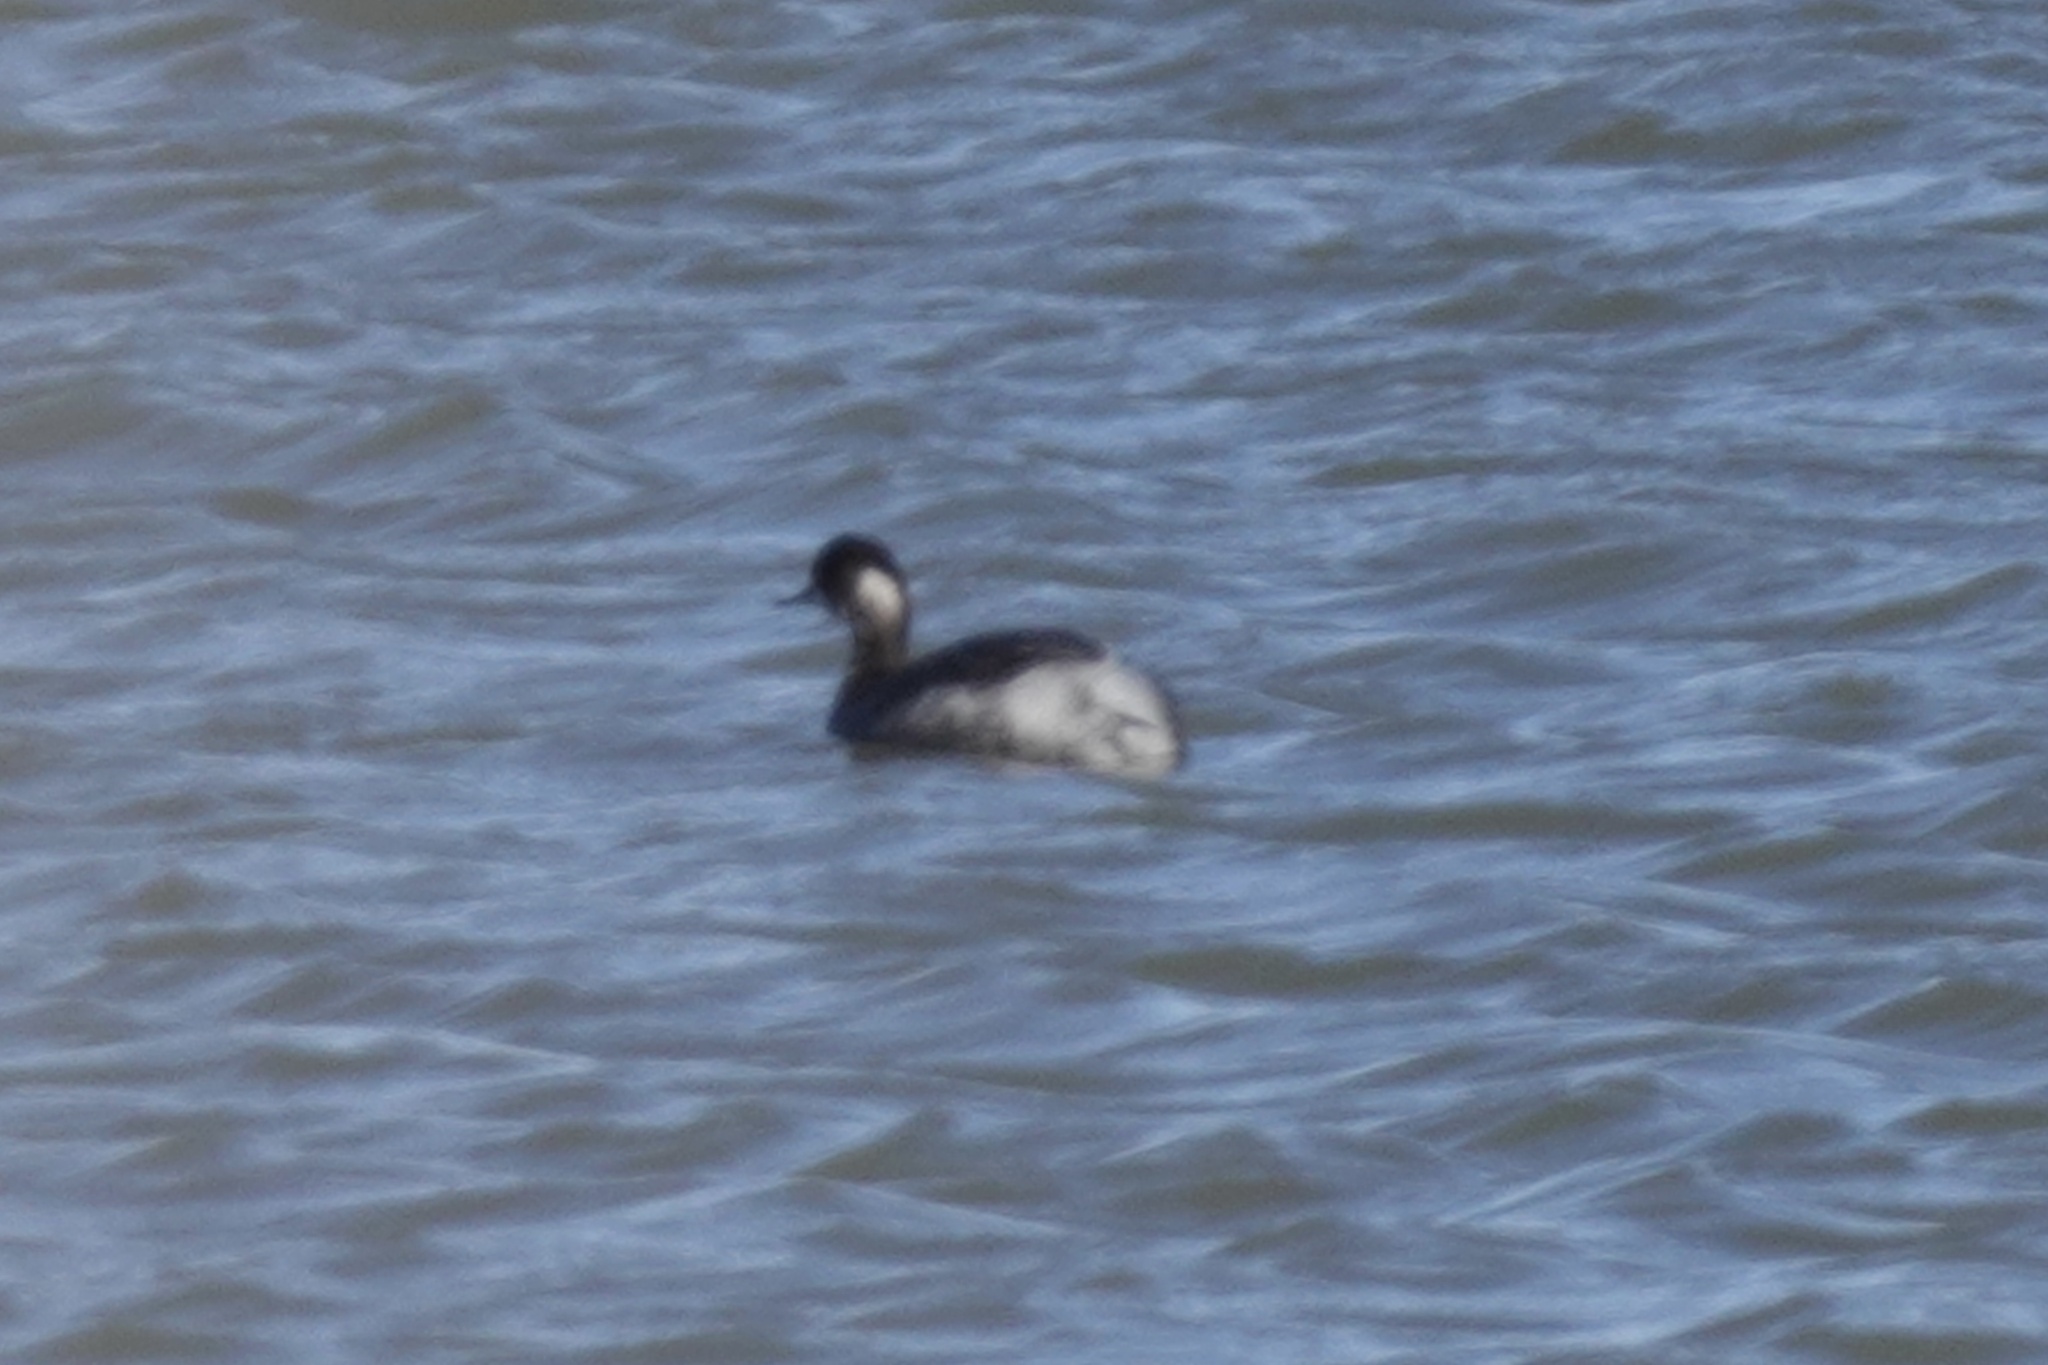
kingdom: Animalia
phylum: Chordata
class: Aves
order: Podicipediformes
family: Podicipedidae
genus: Podiceps
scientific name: Podiceps nigricollis
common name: Black-necked grebe
